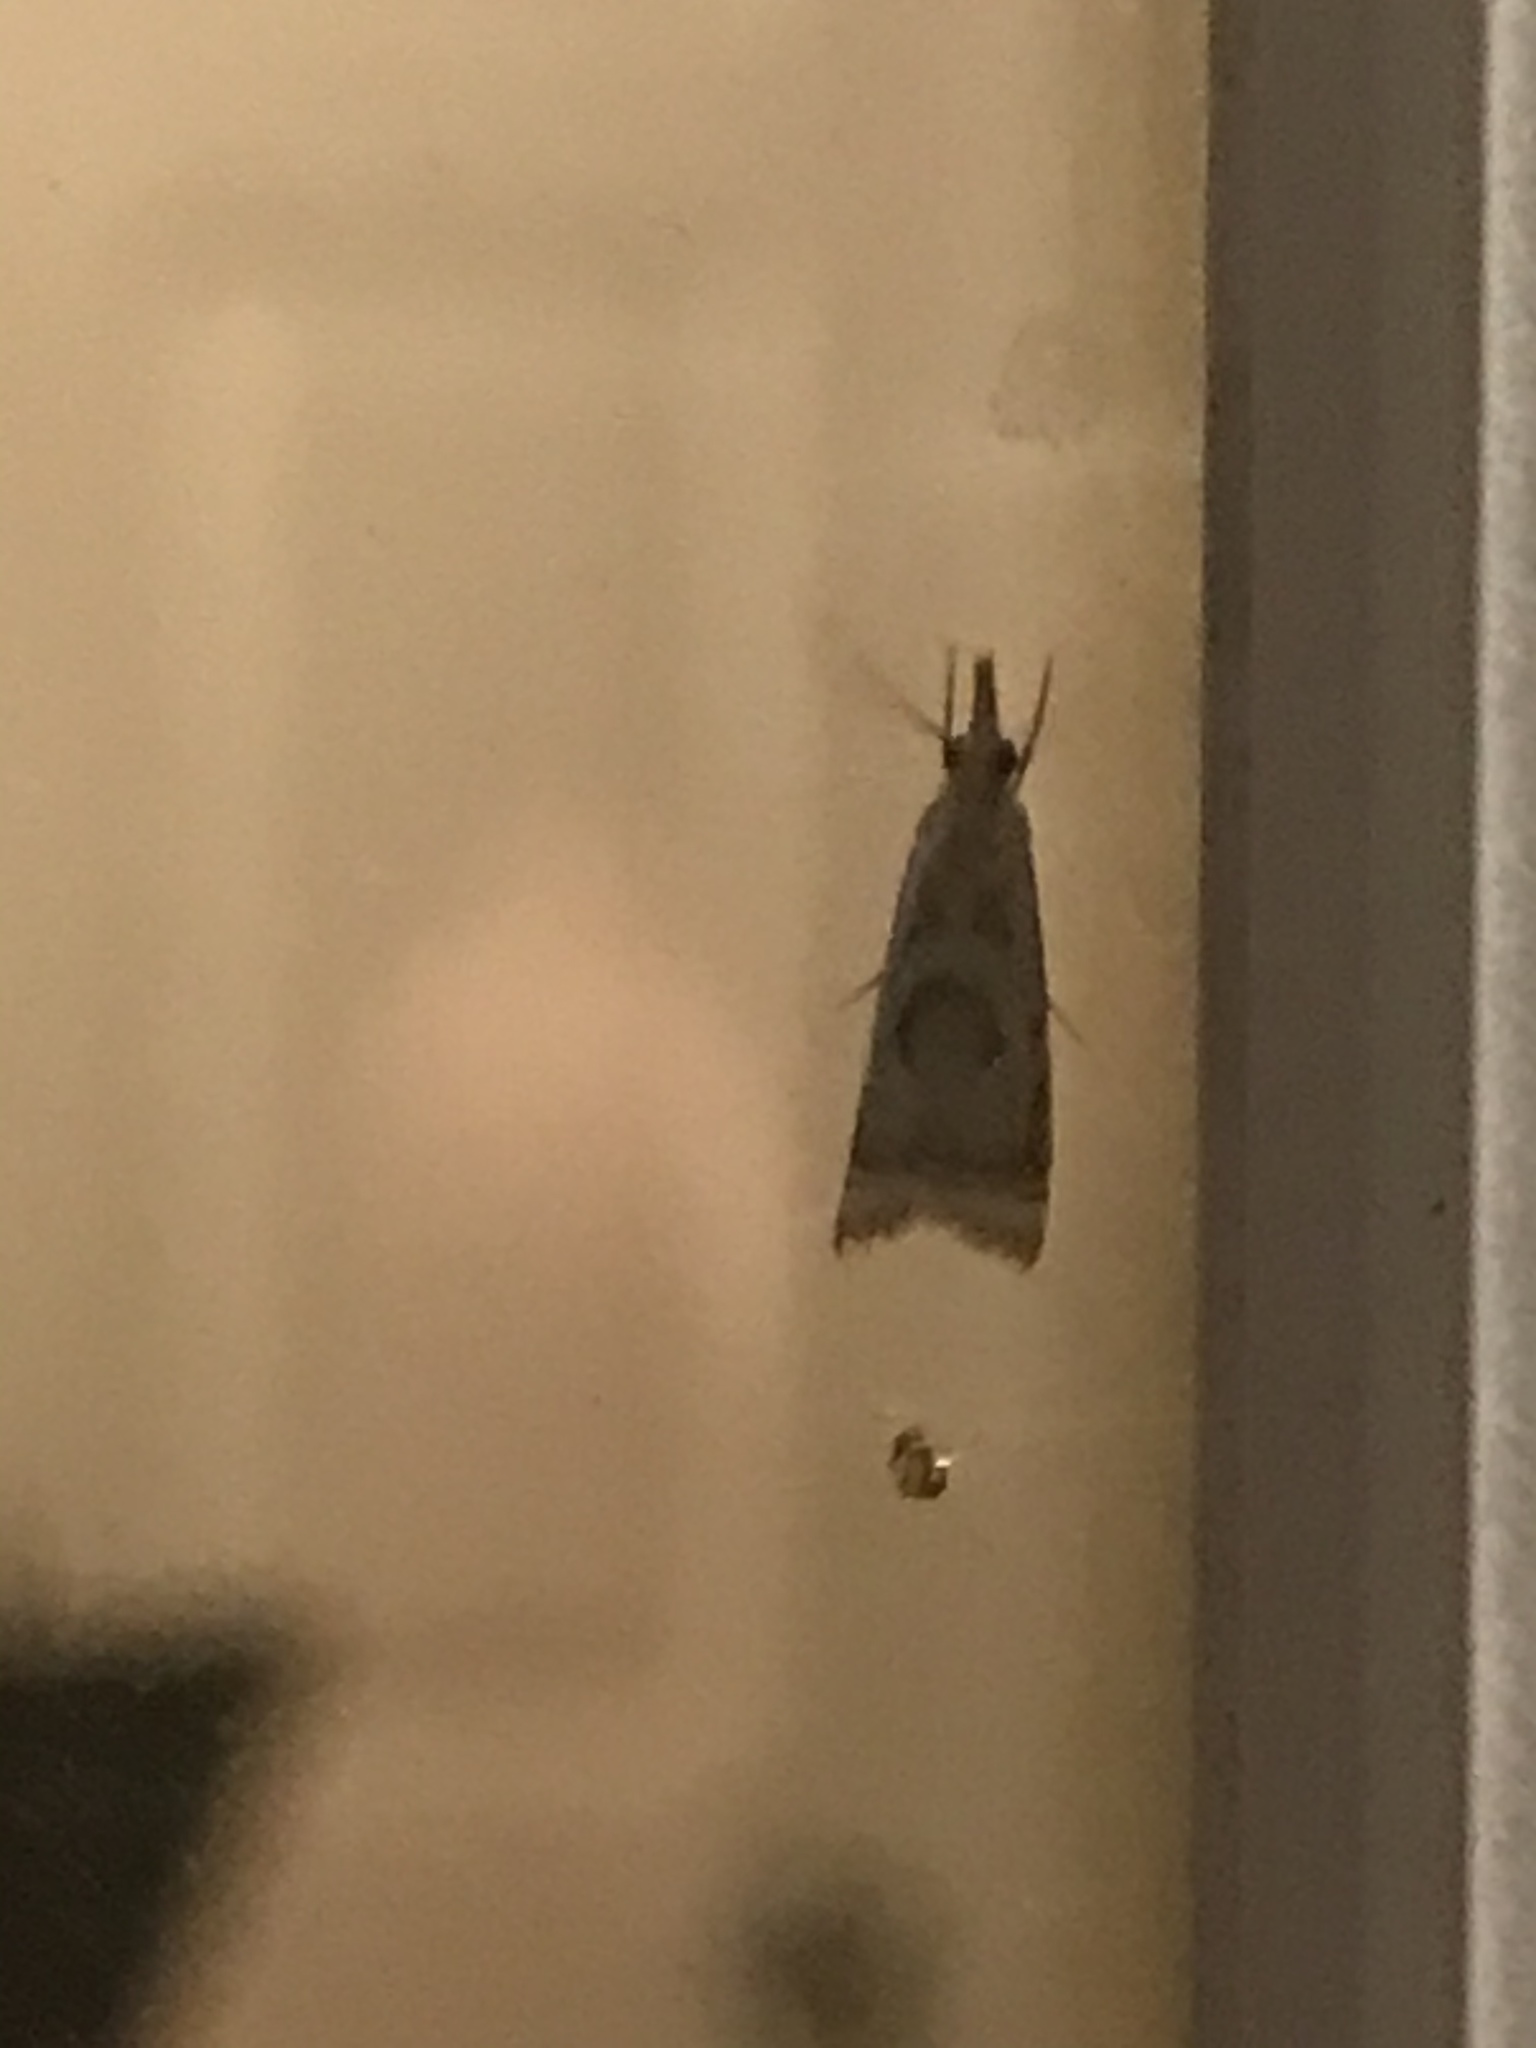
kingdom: Animalia
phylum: Arthropoda
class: Insecta
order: Lepidoptera
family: Crambidae
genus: Microcrambus
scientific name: Microcrambus elegans
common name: Elegant grass-veneer
